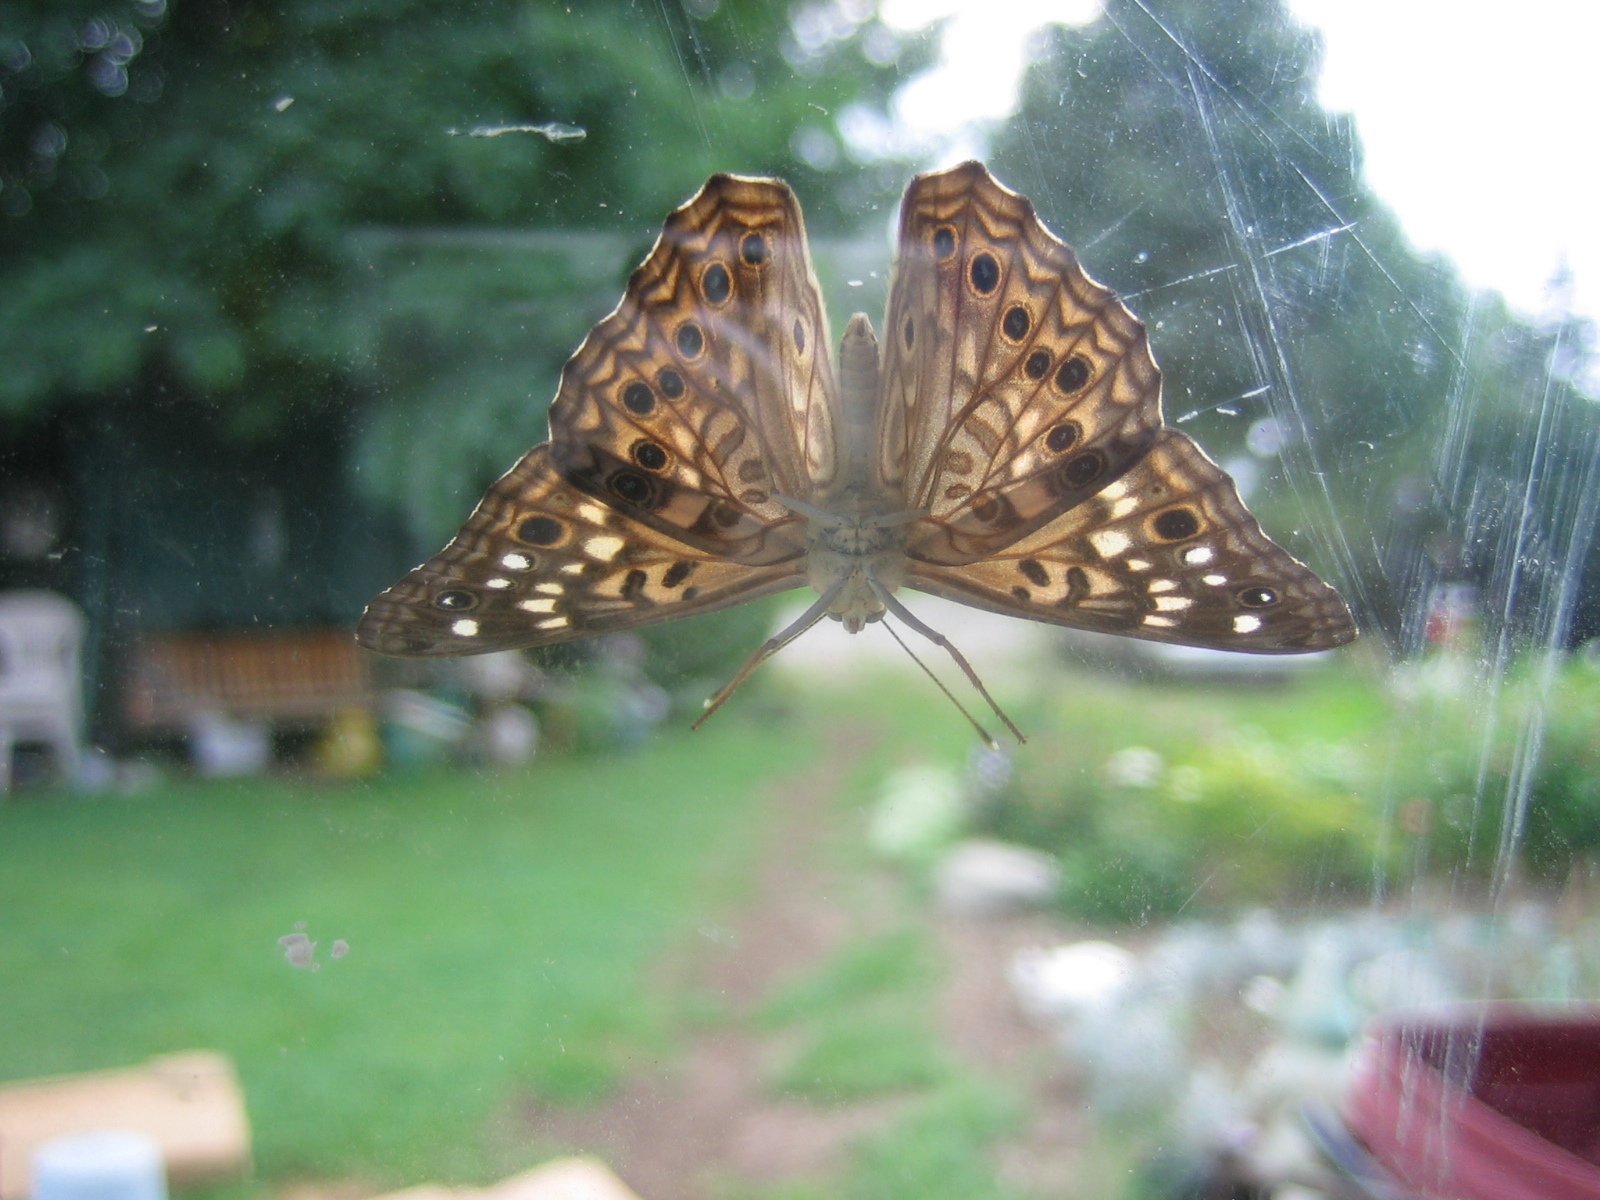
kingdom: Animalia
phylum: Arthropoda
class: Insecta
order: Lepidoptera
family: Nymphalidae
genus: Asterocampa
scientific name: Asterocampa celtis
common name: Hackberry emperor
